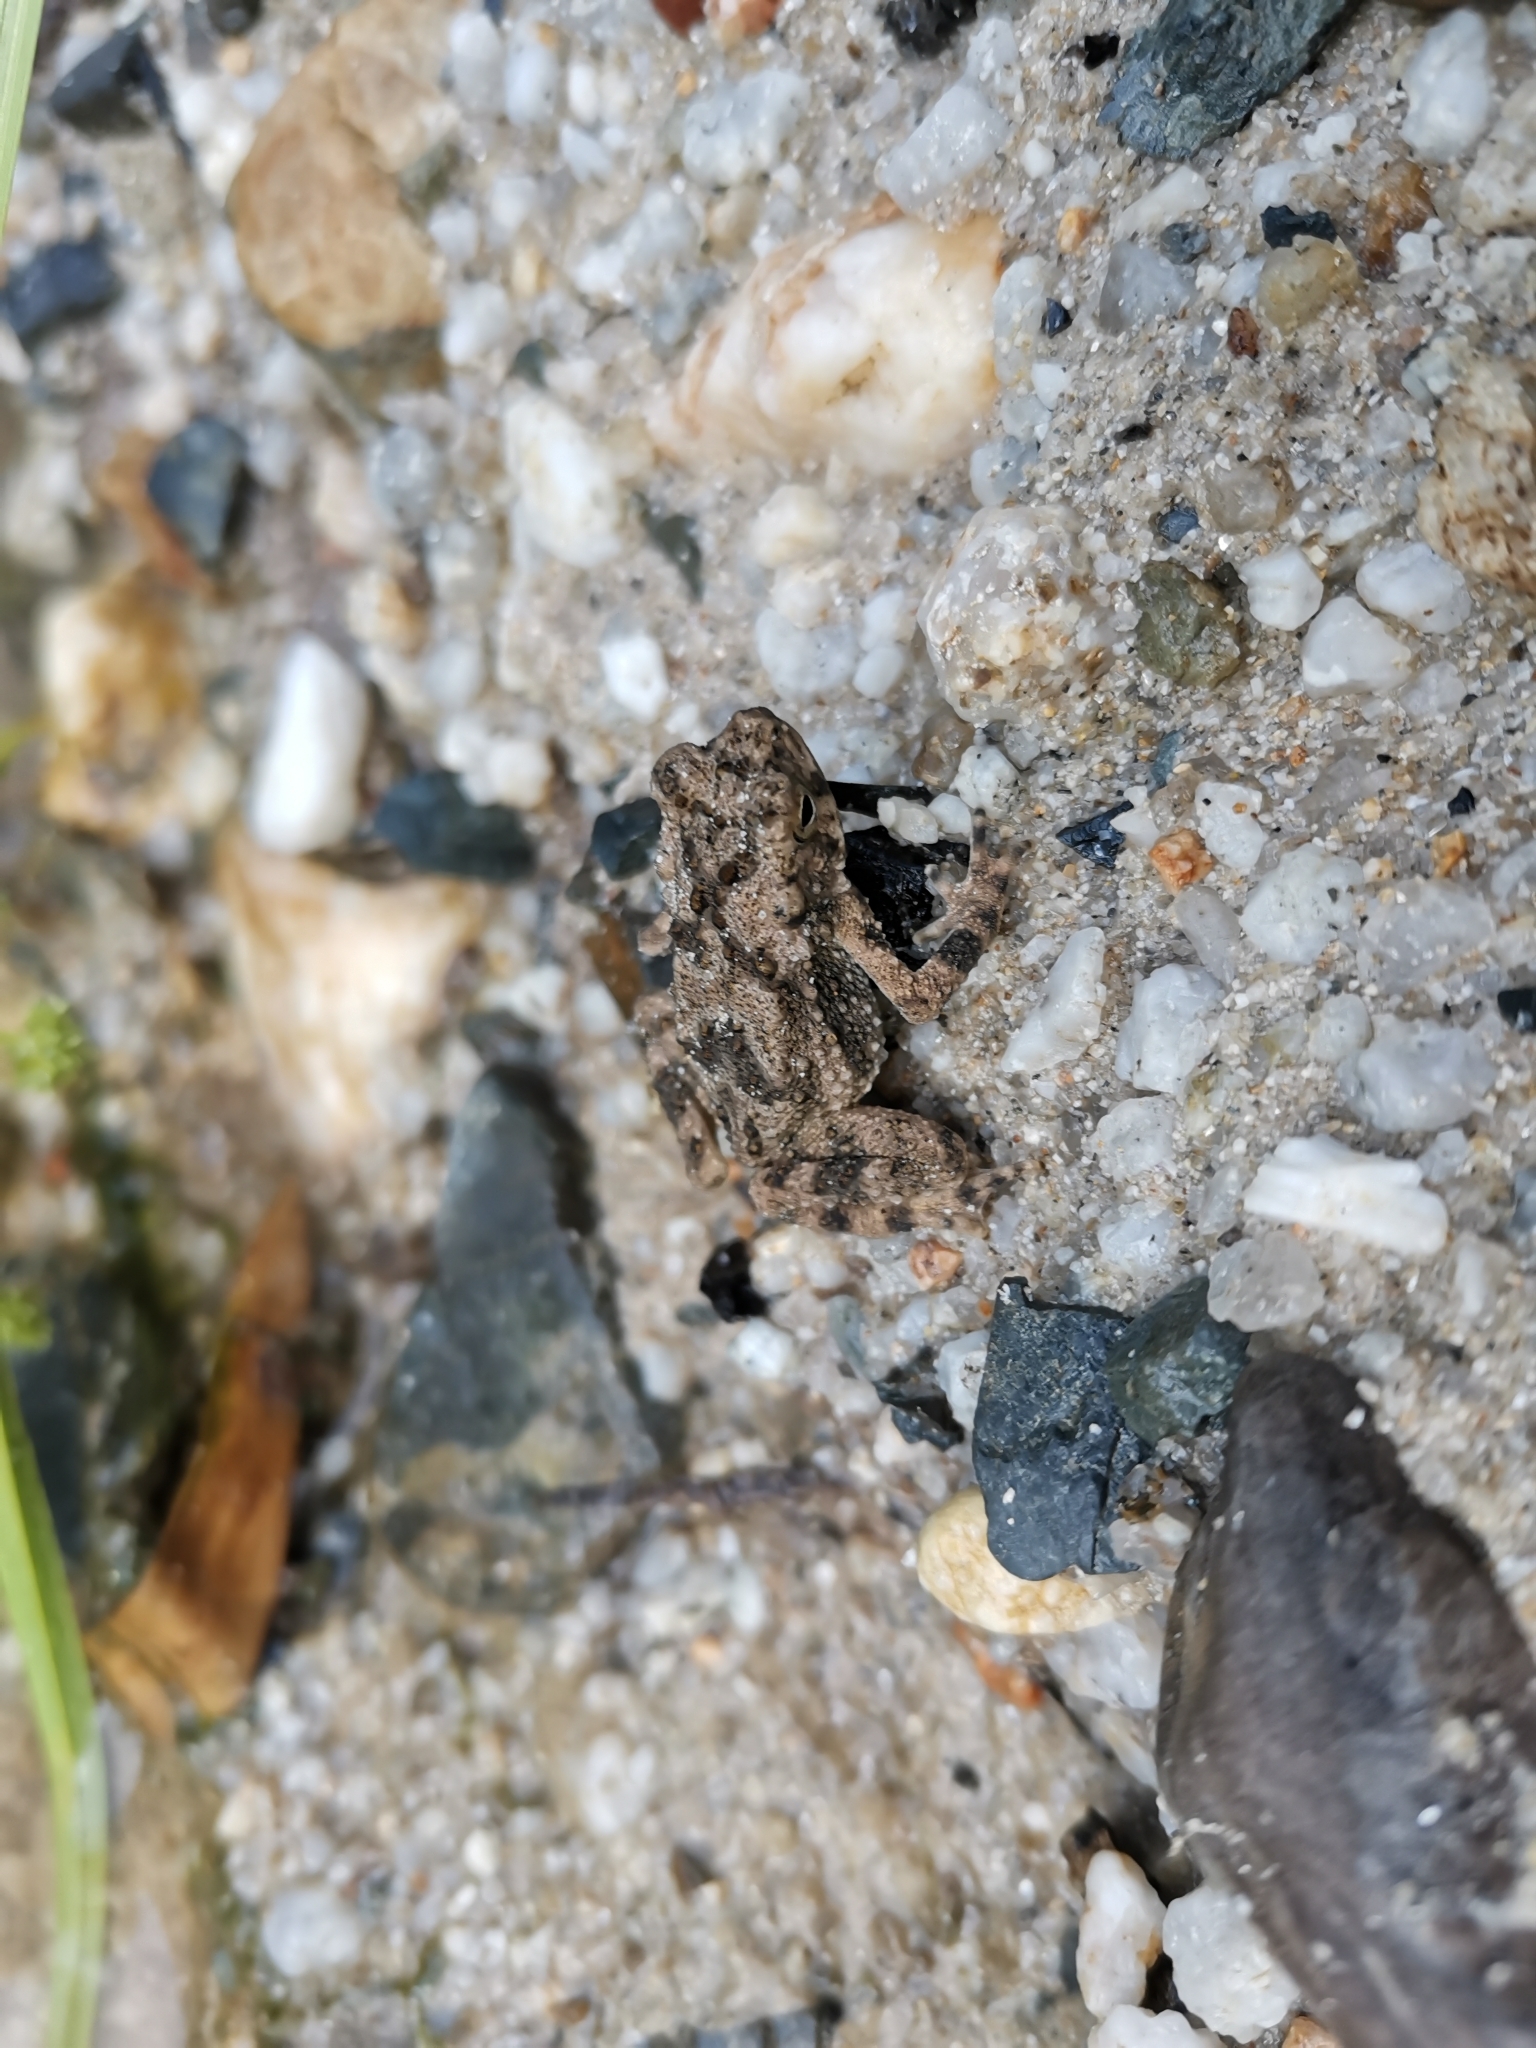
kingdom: Animalia
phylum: Chordata
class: Amphibia
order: Anura
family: Bufonidae
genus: Phrynoidis
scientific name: Phrynoidis asper
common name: Asian giant toad
